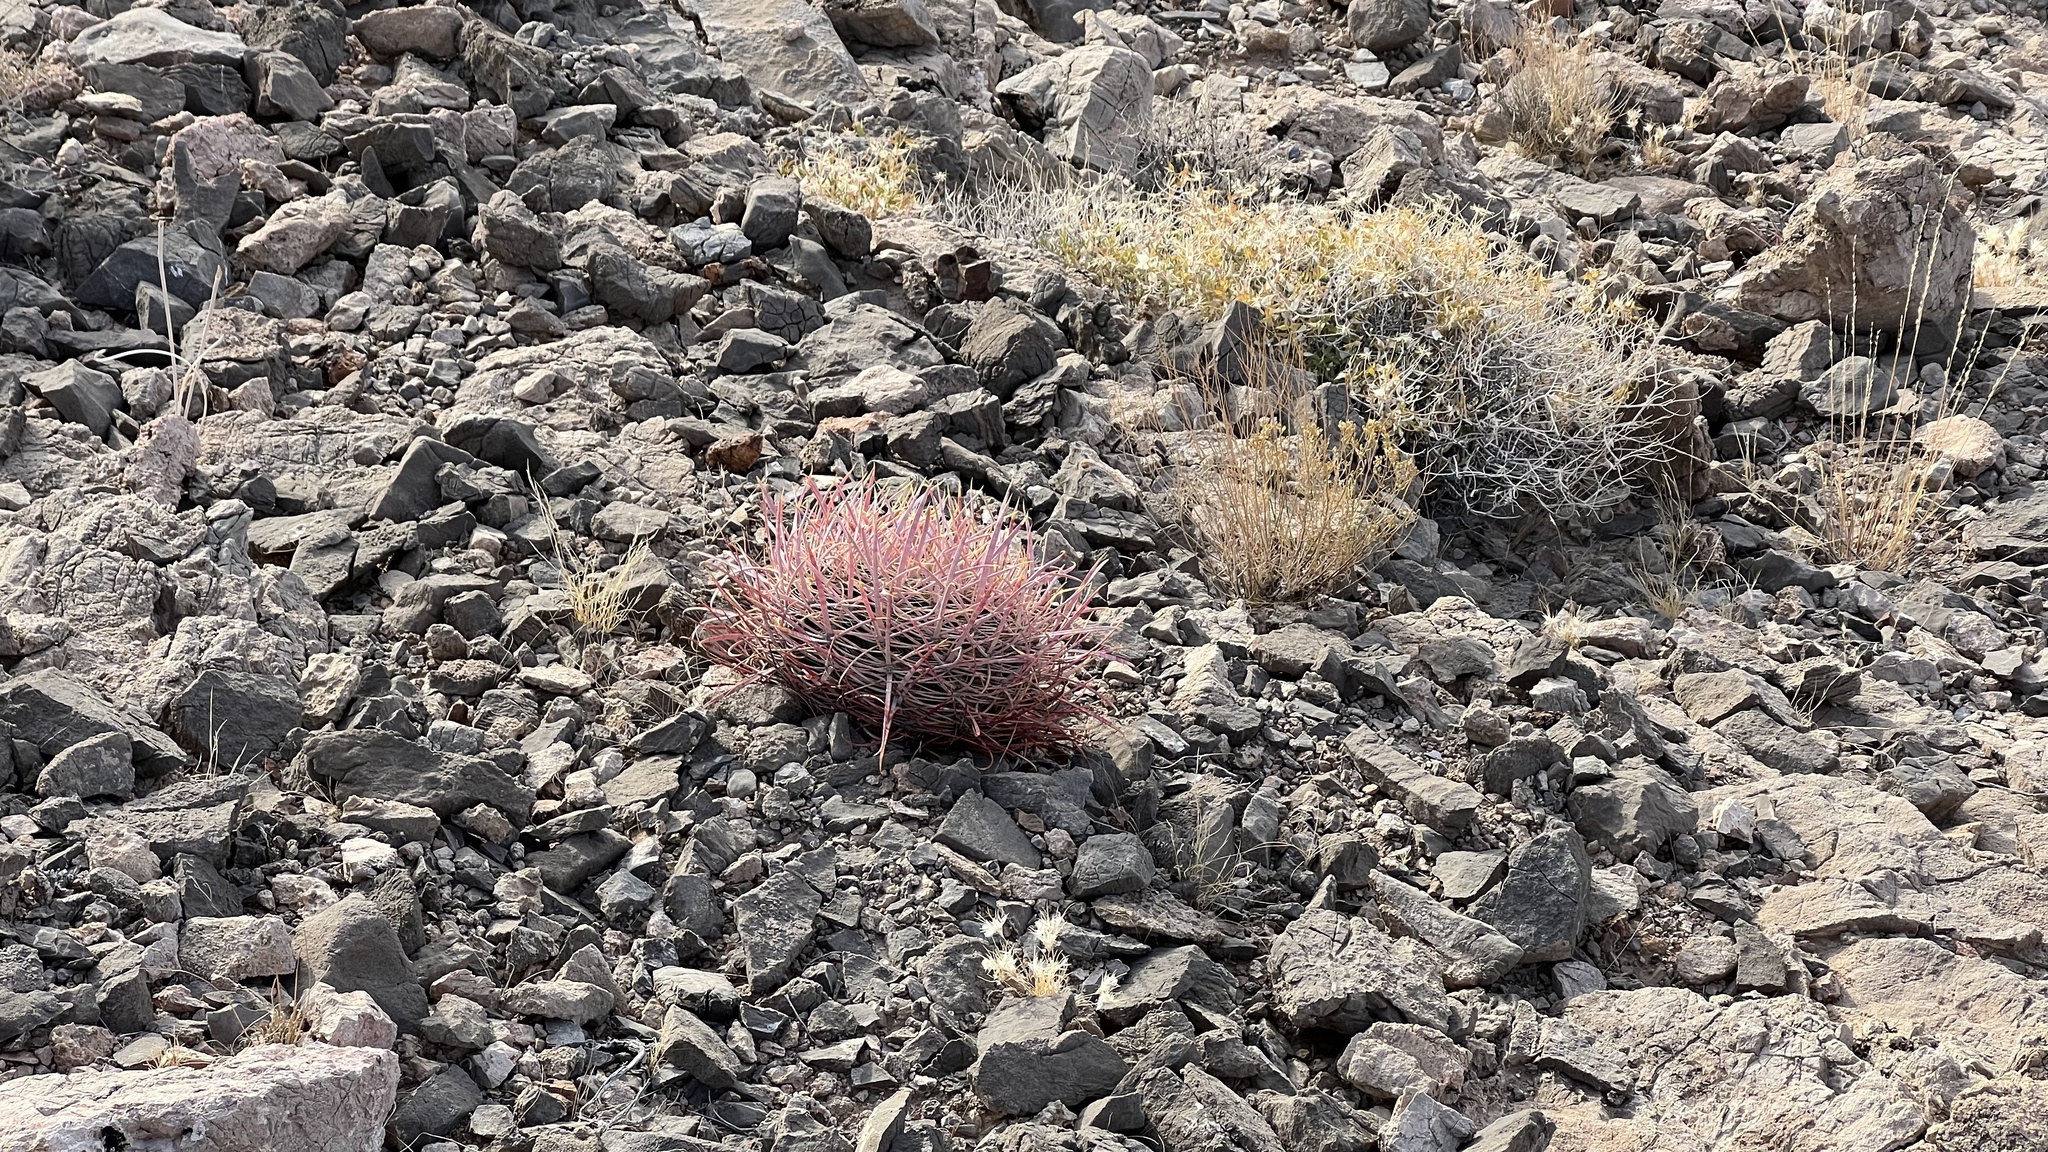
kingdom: Plantae
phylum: Tracheophyta
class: Magnoliopsida
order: Caryophyllales
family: Cactaceae
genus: Ferocactus
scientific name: Ferocactus cylindraceus
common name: California barrel cactus
